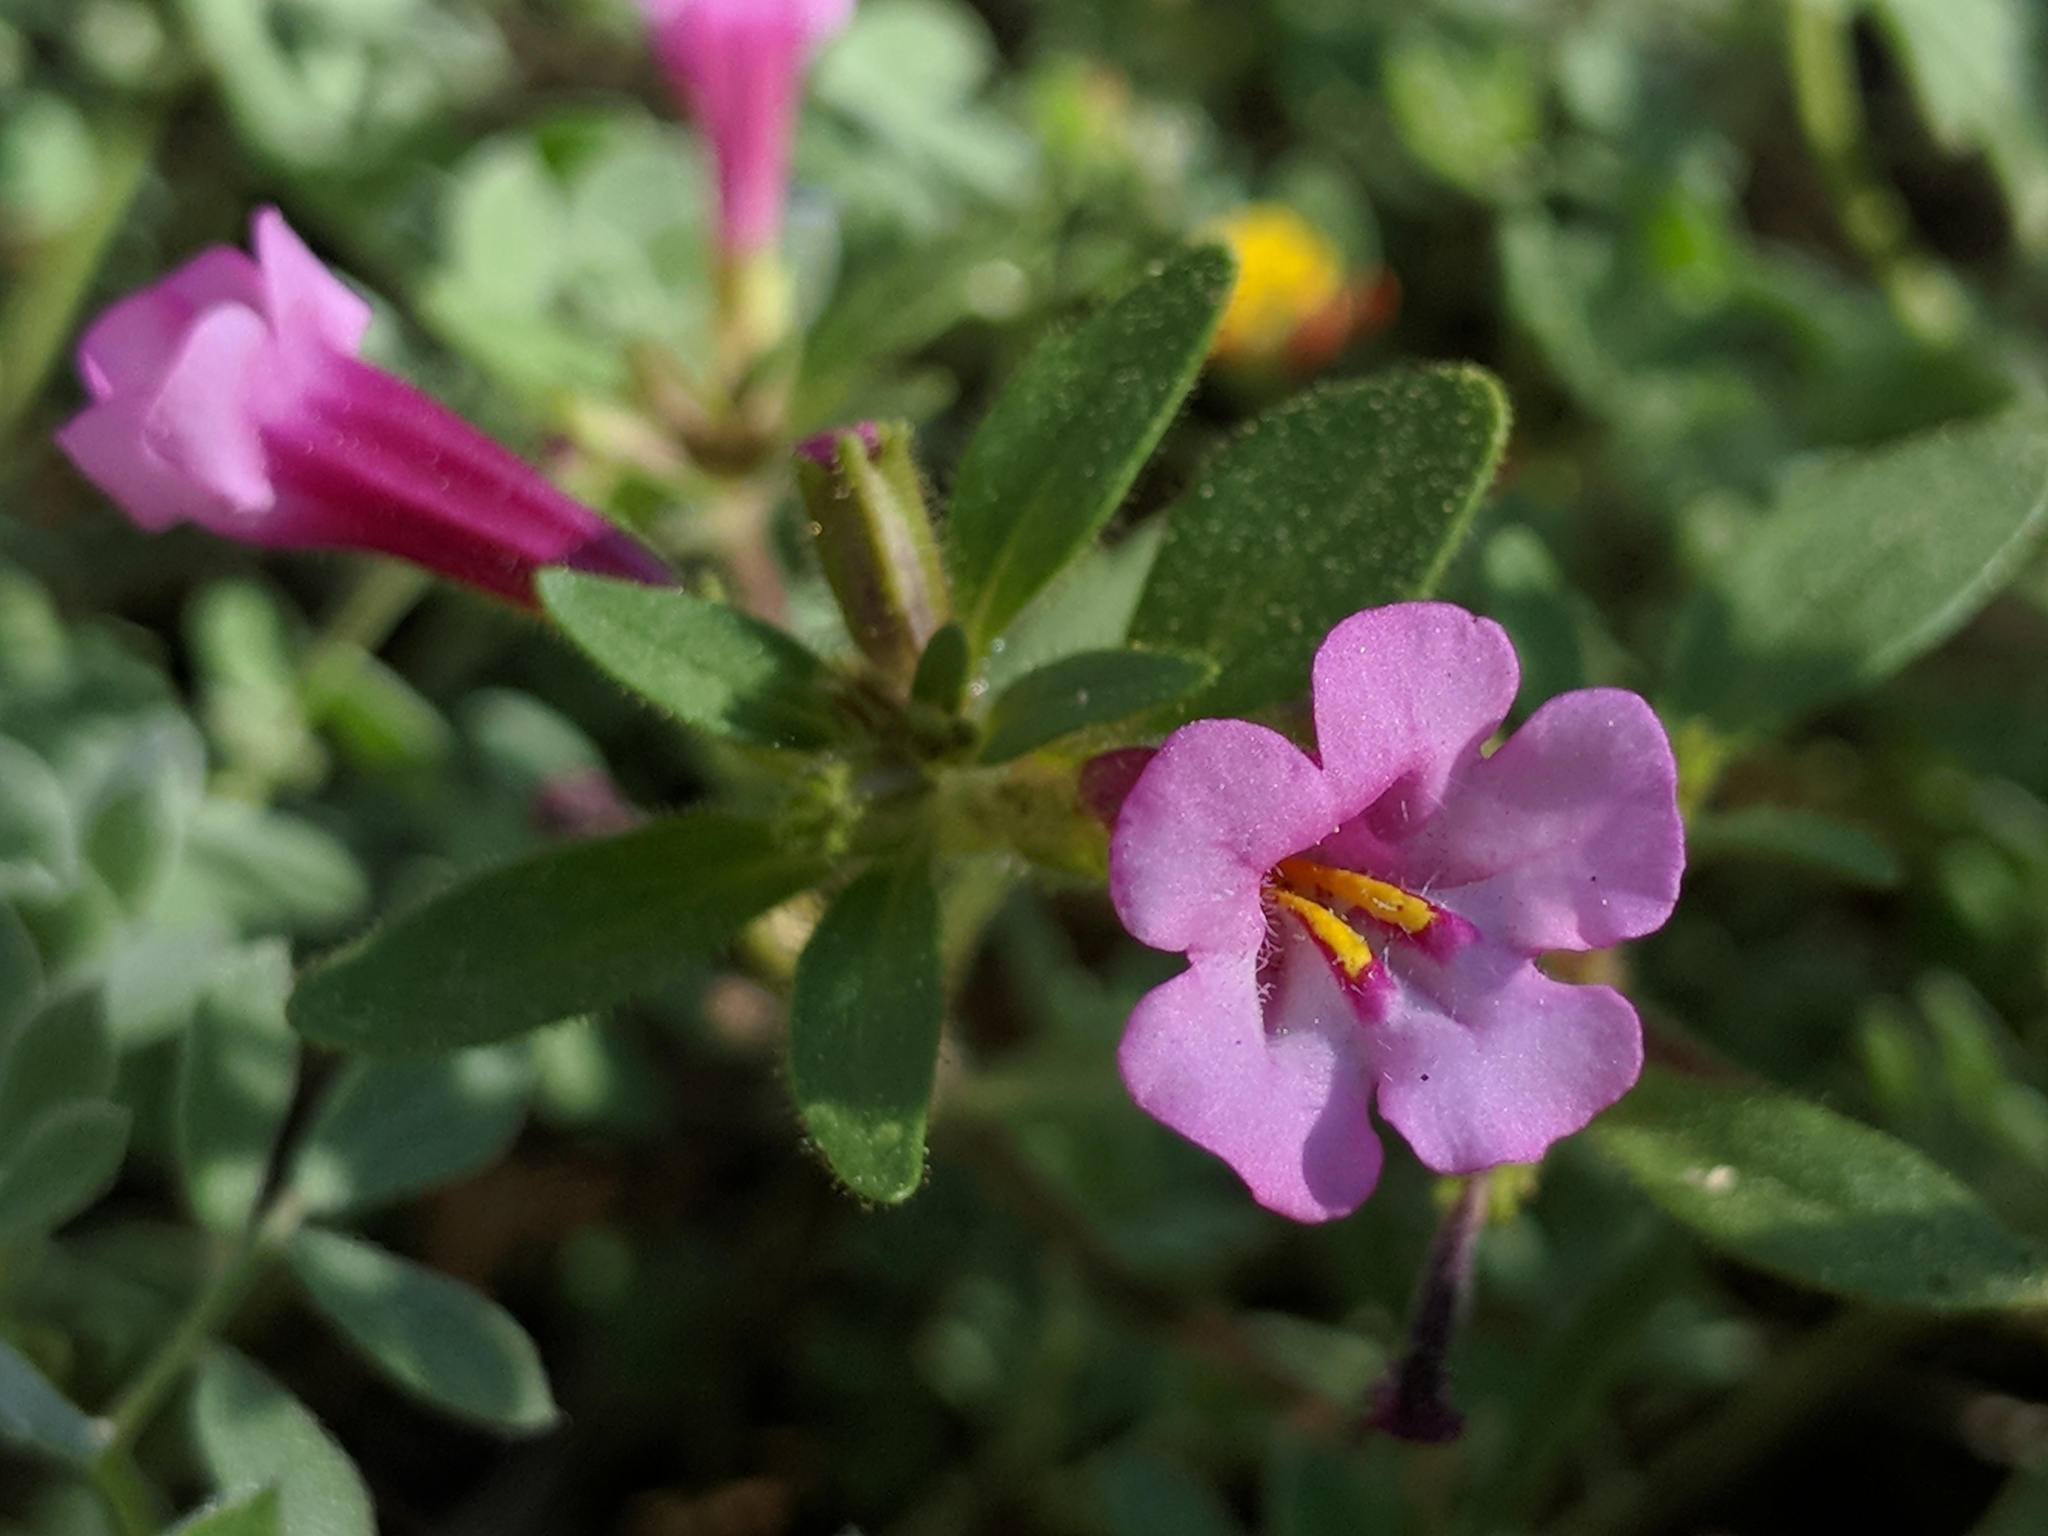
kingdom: Plantae
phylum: Tracheophyta
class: Magnoliopsida
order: Lamiales
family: Phrymaceae
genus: Diplacus
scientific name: Diplacus torreyi
